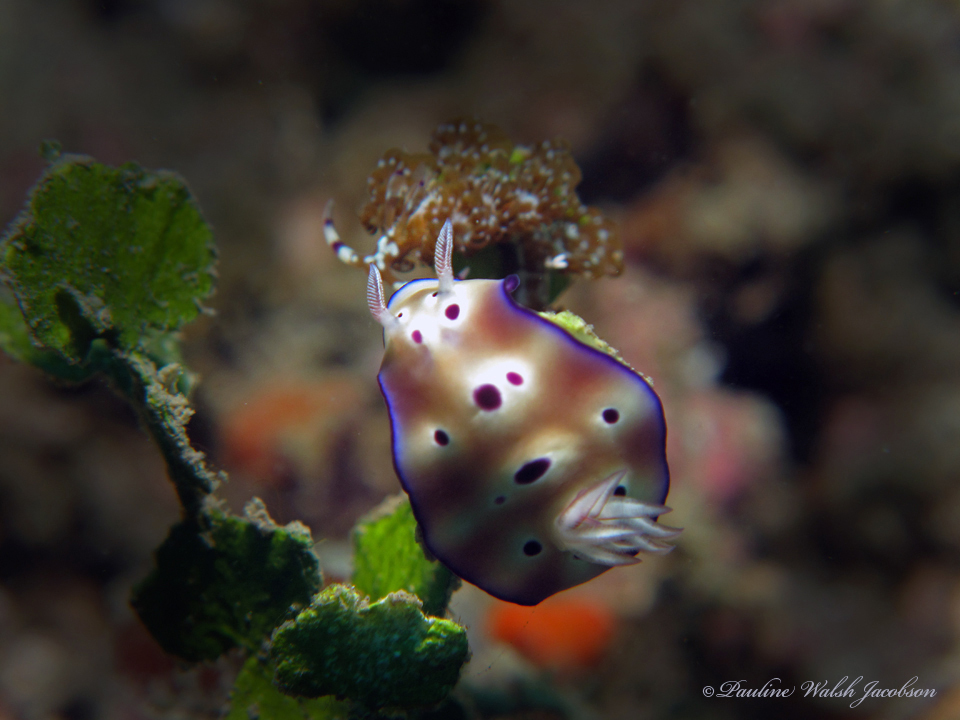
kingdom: Animalia
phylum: Mollusca
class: Gastropoda
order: Nudibranchia
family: Chromodorididae
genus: Hypselodoris
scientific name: Hypselodoris tryoni
